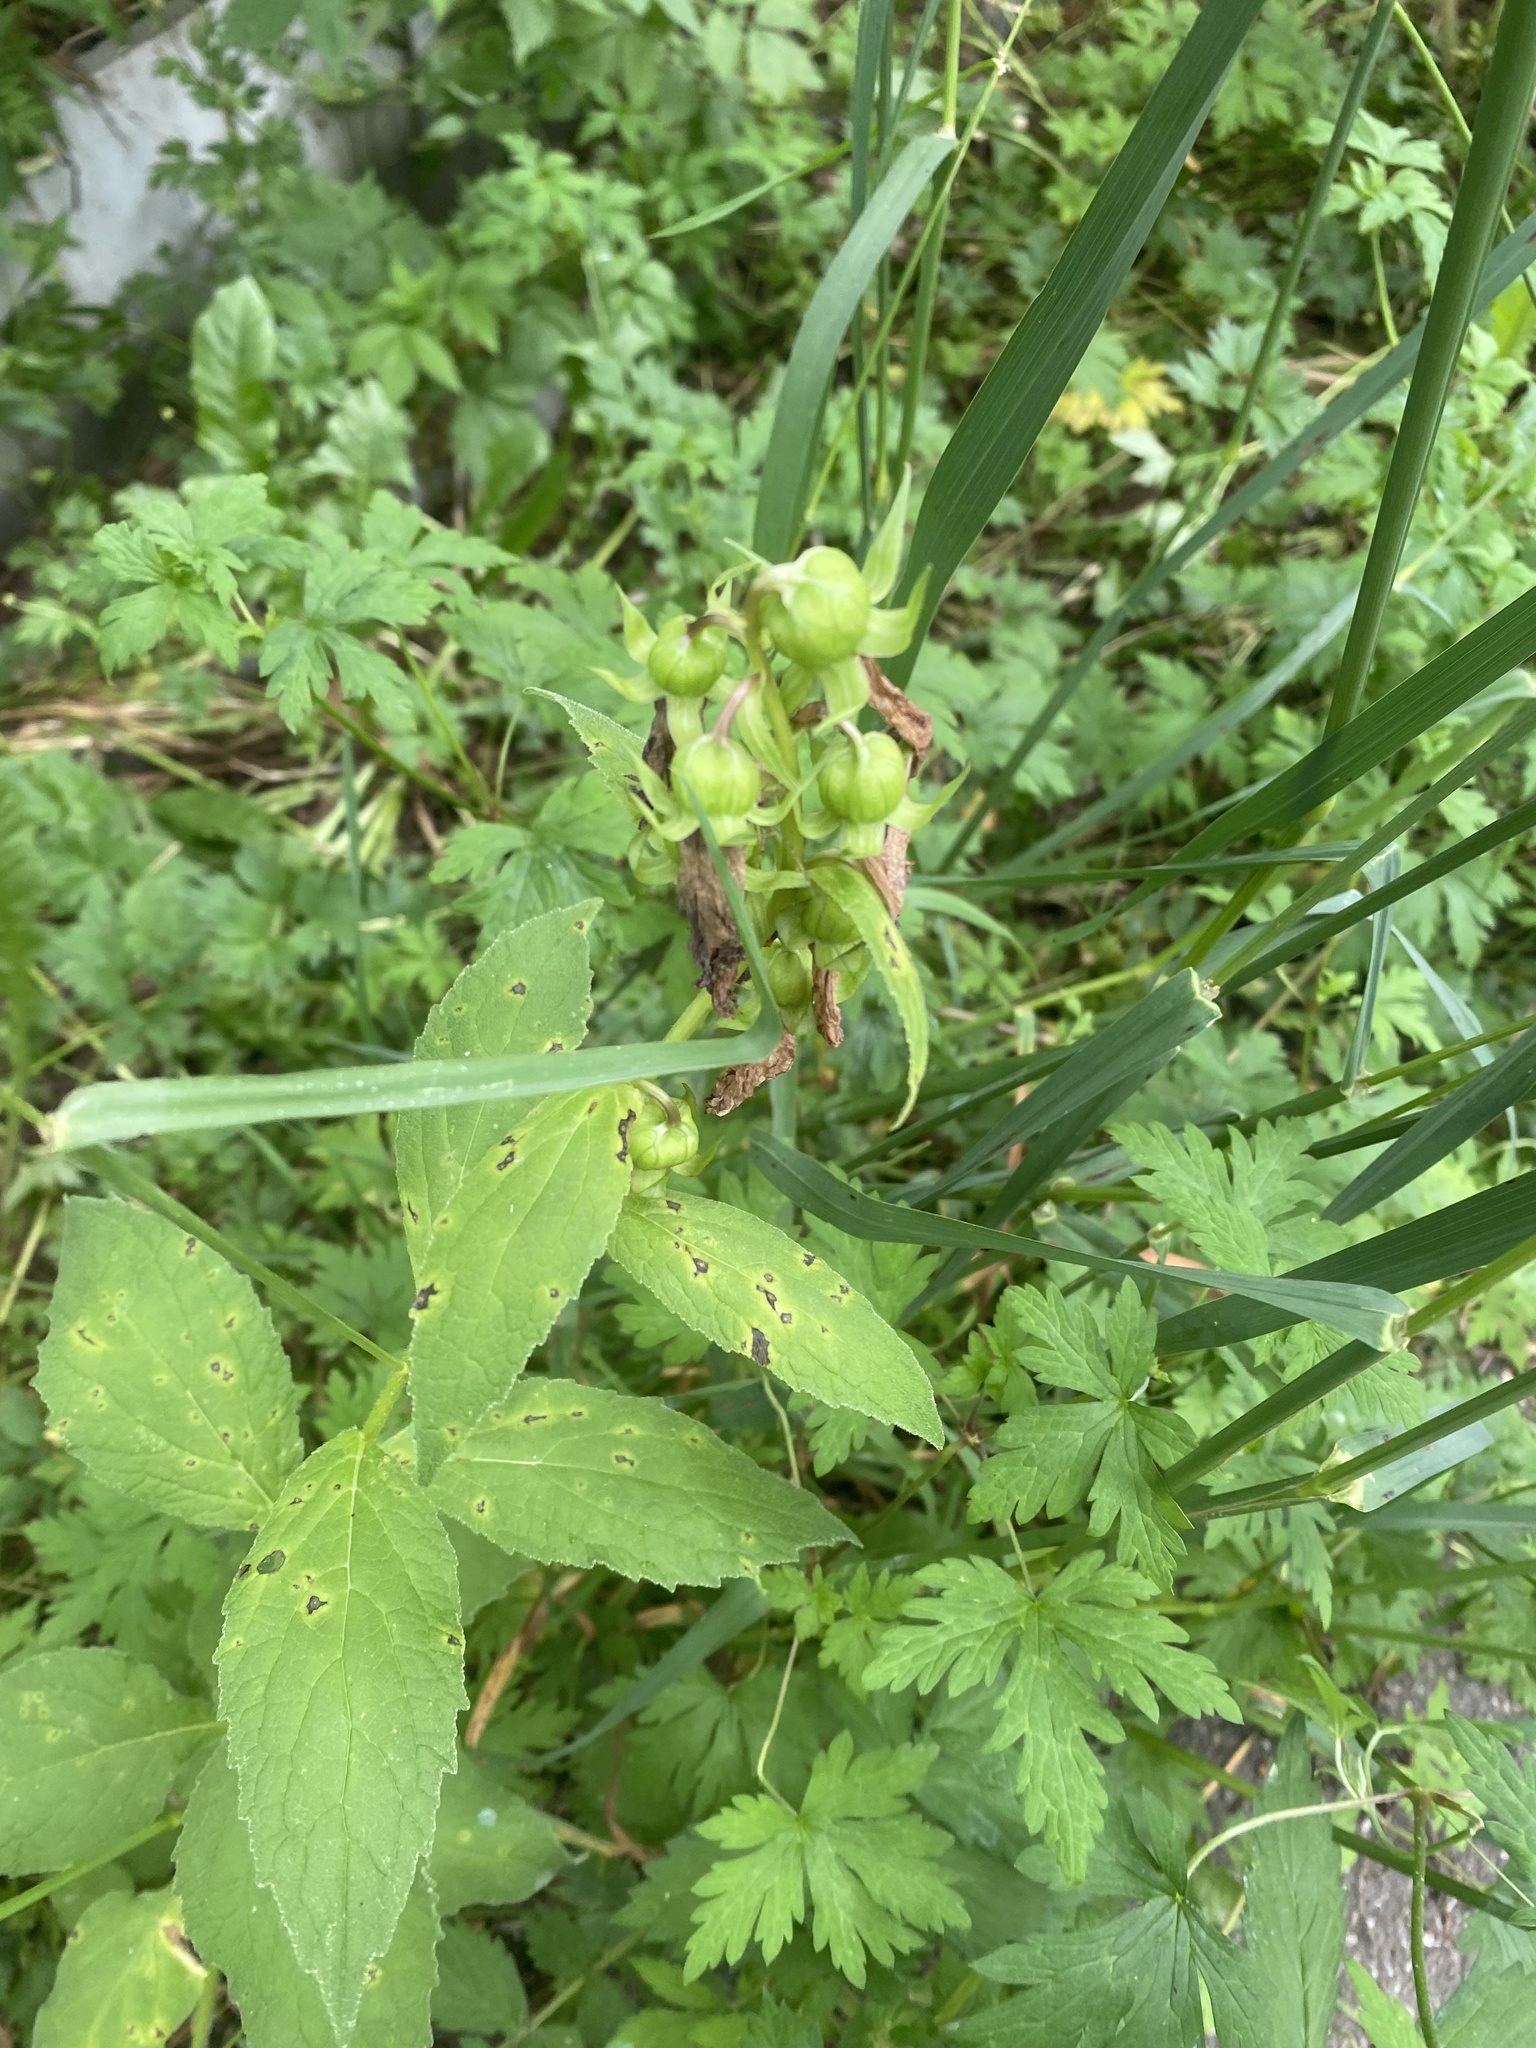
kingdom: Plantae
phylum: Tracheophyta
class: Magnoliopsida
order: Asterales
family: Campanulaceae
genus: Campanula
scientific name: Campanula latifolia
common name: Giant bellflower
